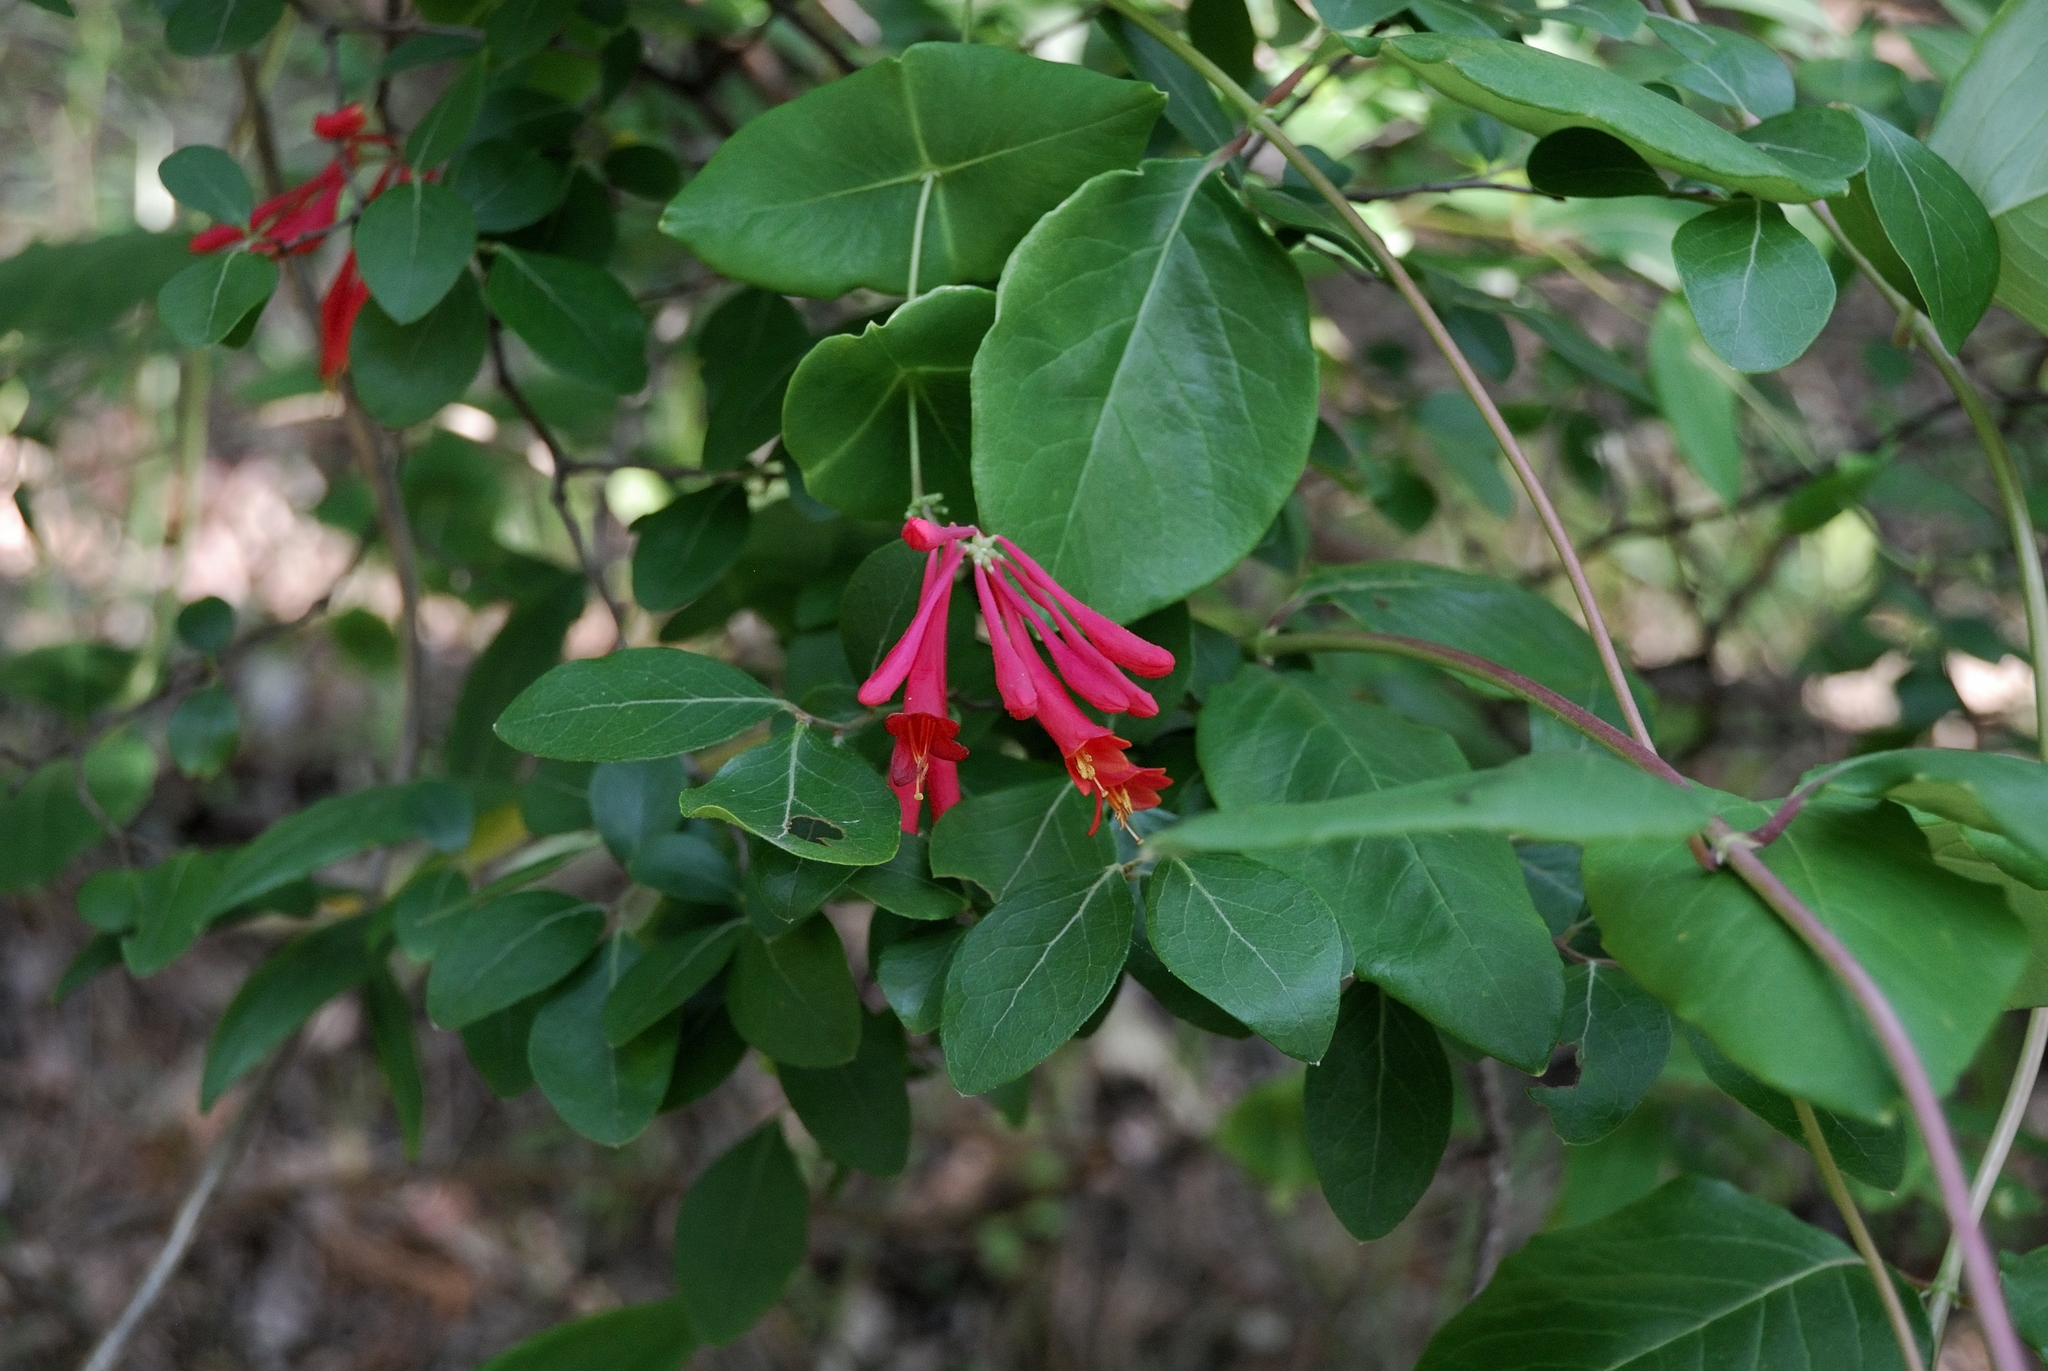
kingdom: Plantae
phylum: Tracheophyta
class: Magnoliopsida
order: Dipsacales
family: Caprifoliaceae
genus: Lonicera
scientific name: Lonicera sempervirens
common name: Coral honeysuckle
